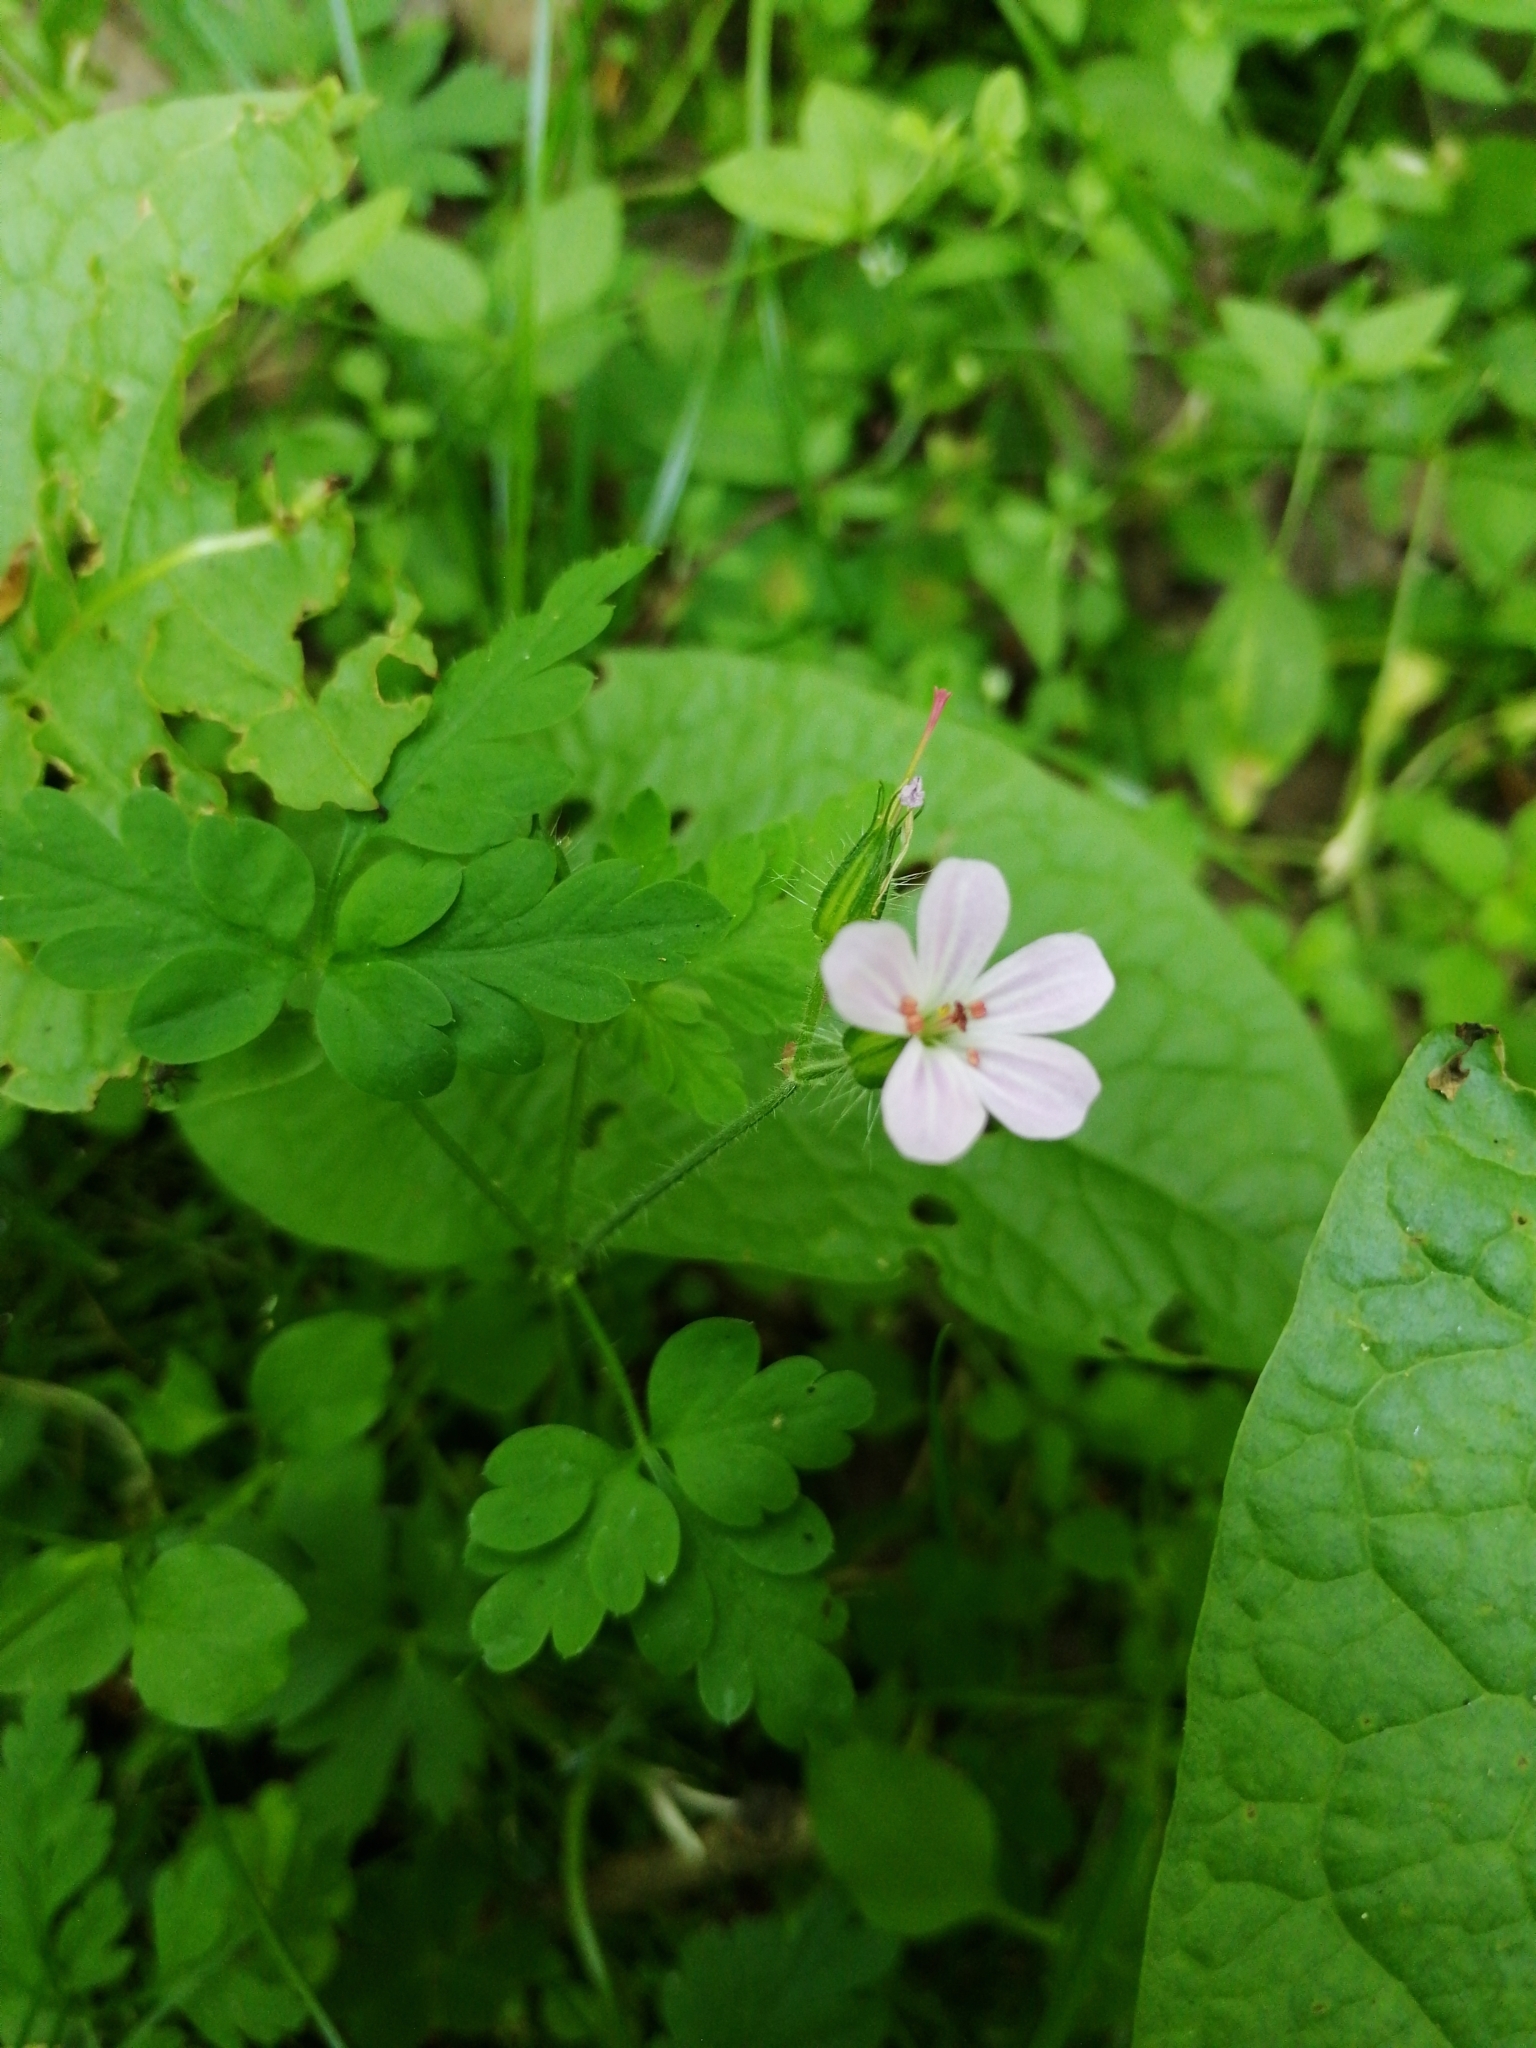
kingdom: Plantae
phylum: Tracheophyta
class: Magnoliopsida
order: Geraniales
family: Geraniaceae
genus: Geranium
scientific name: Geranium robertianum
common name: Herb-robert
